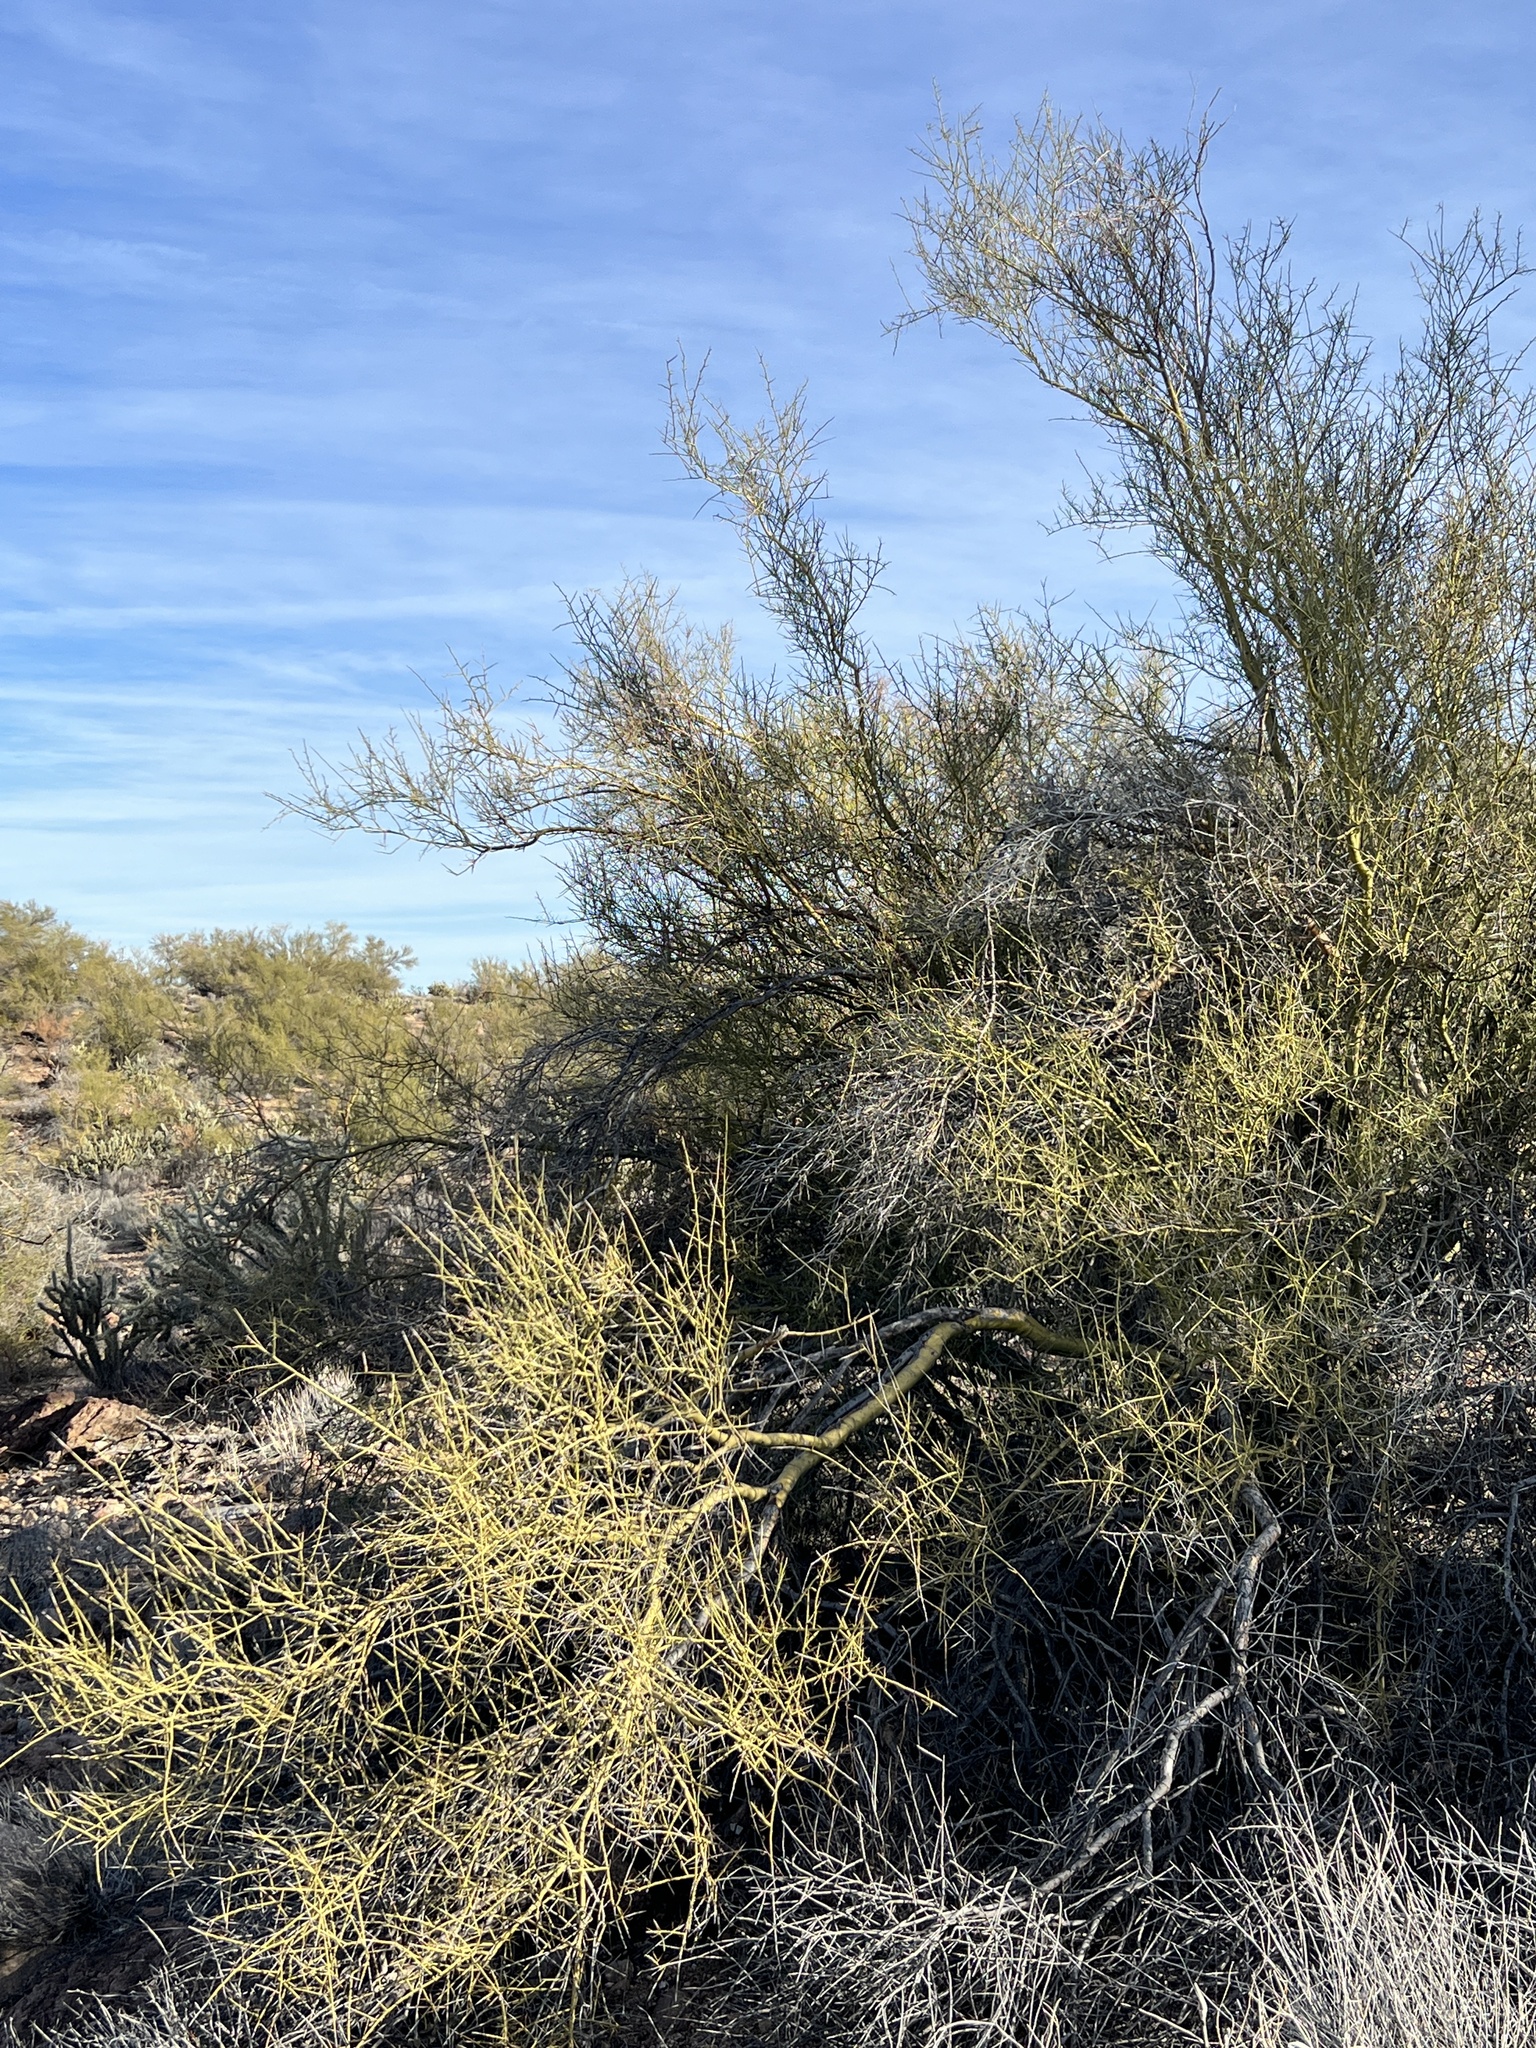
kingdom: Plantae
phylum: Tracheophyta
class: Magnoliopsida
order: Fabales
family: Fabaceae
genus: Parkinsonia
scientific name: Parkinsonia microphylla
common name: Yellow paloverde
